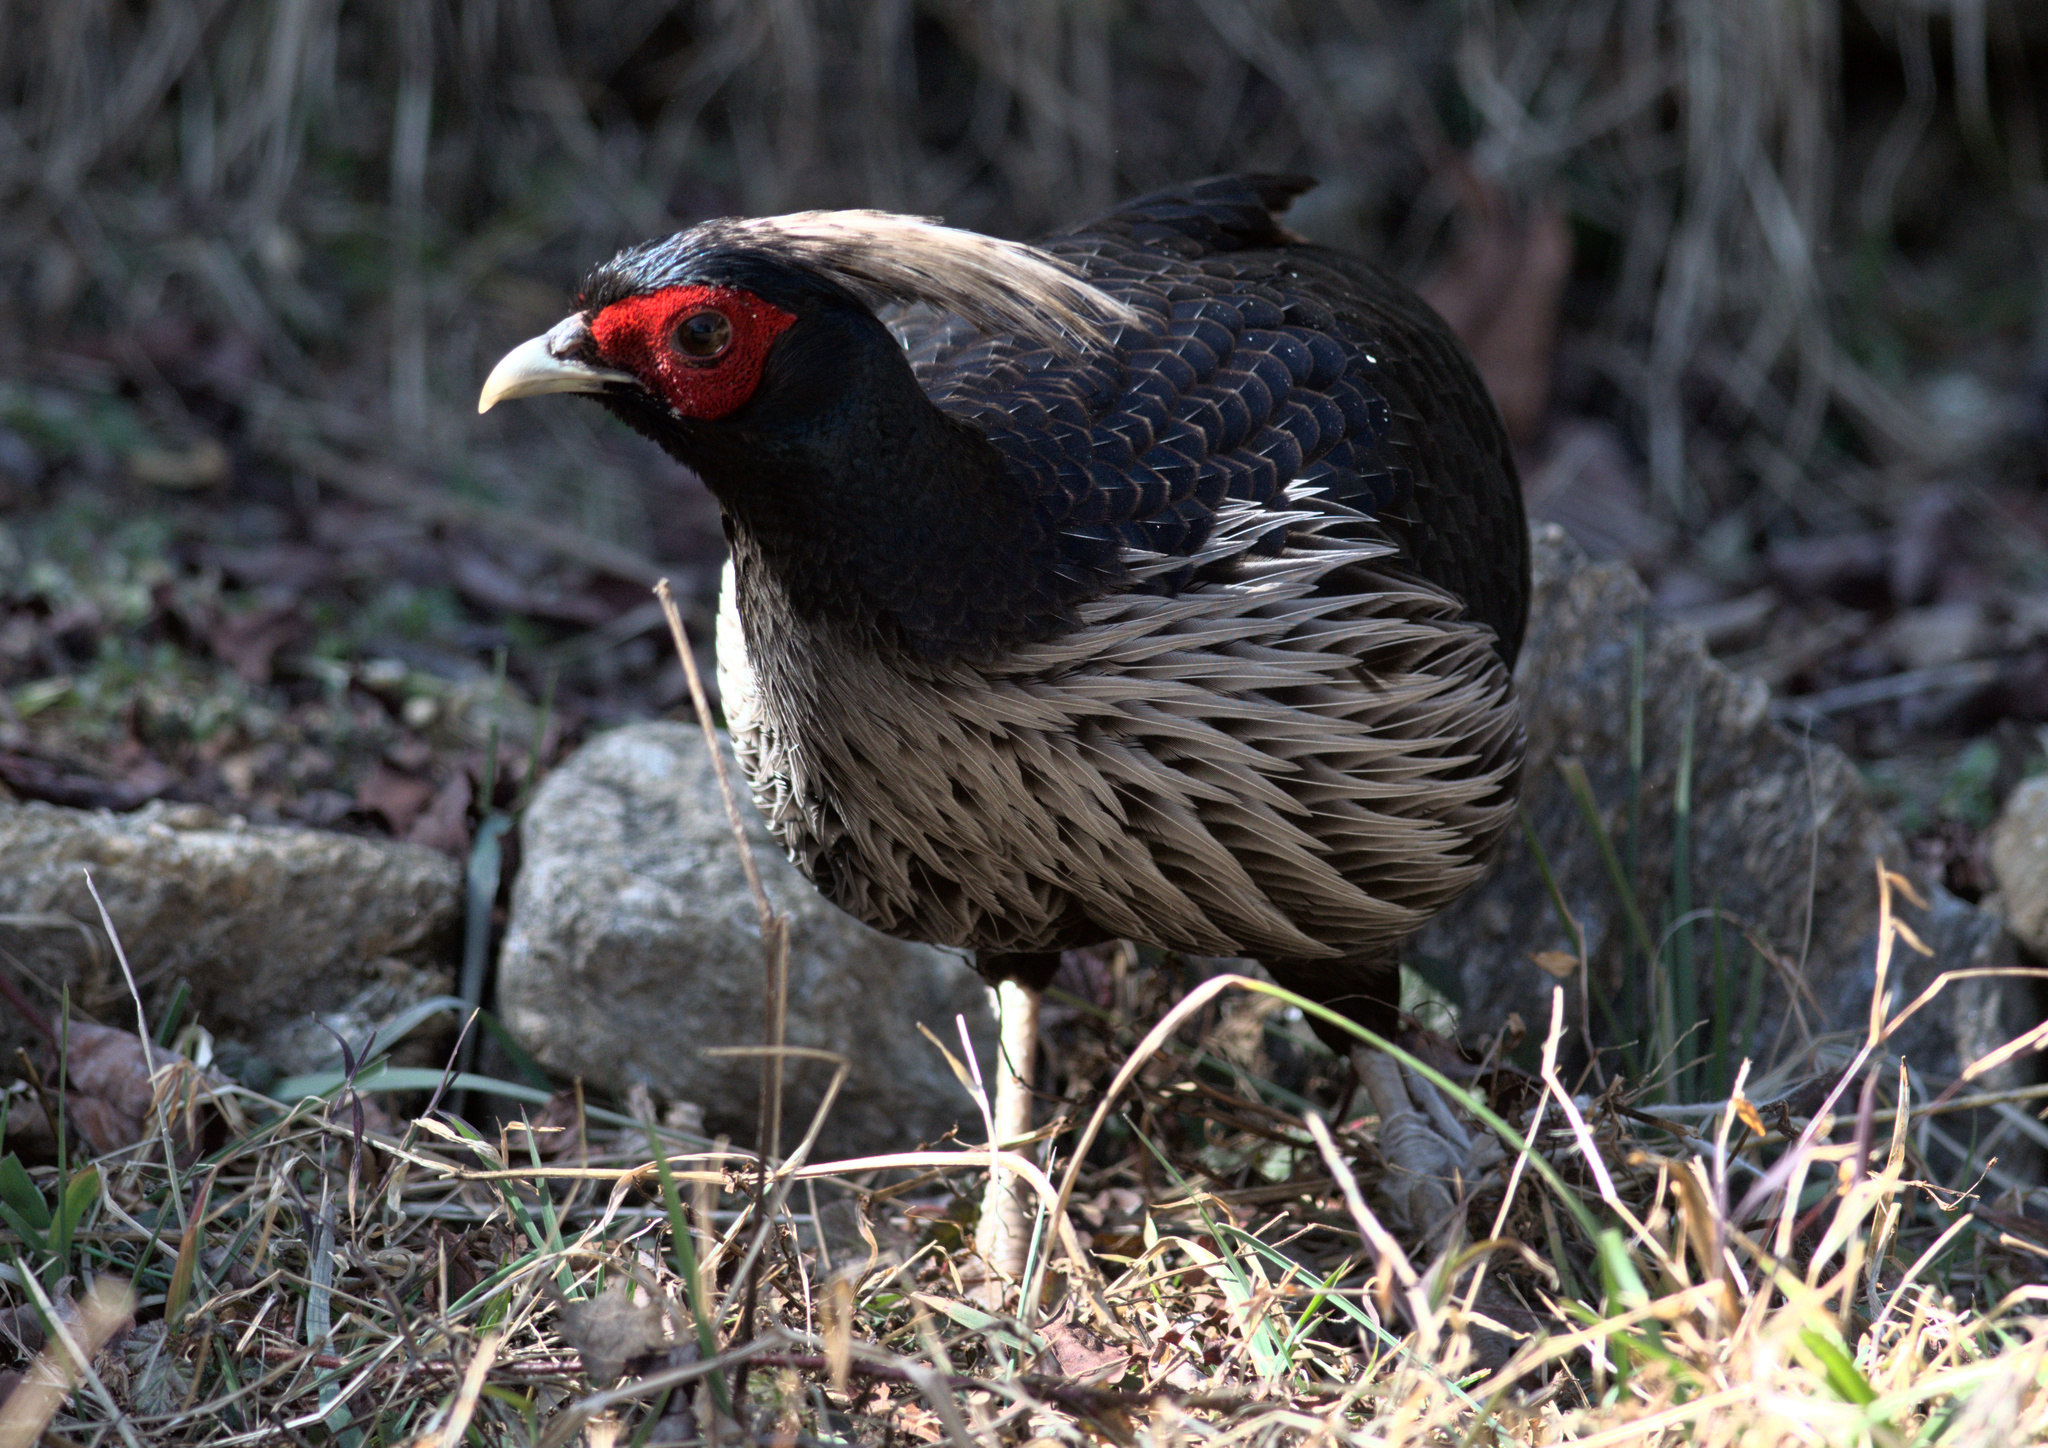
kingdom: Animalia
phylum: Chordata
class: Aves
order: Galliformes
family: Phasianidae
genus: Lophura
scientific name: Lophura leucomelanos
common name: Kalij pheasant
